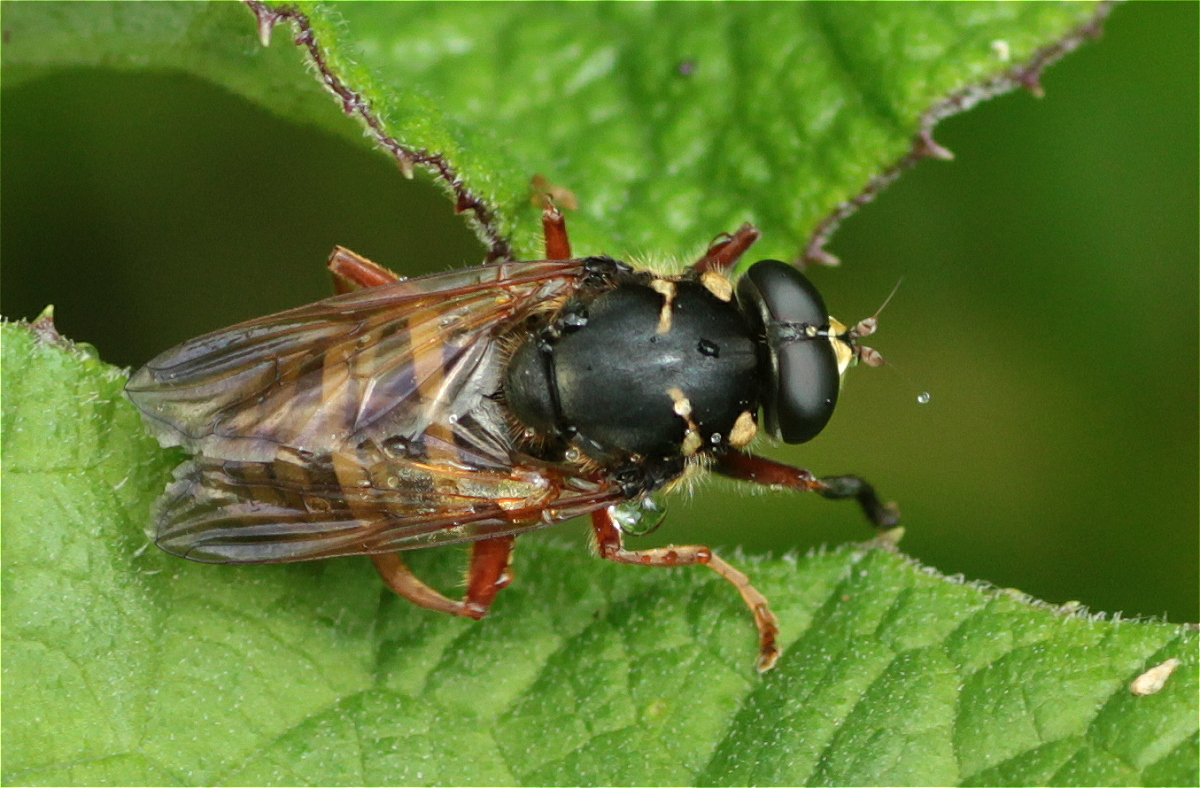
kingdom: Animalia
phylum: Arthropoda
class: Insecta
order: Diptera
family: Syrphidae
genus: Temnostoma
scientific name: Temnostoma apiforme
